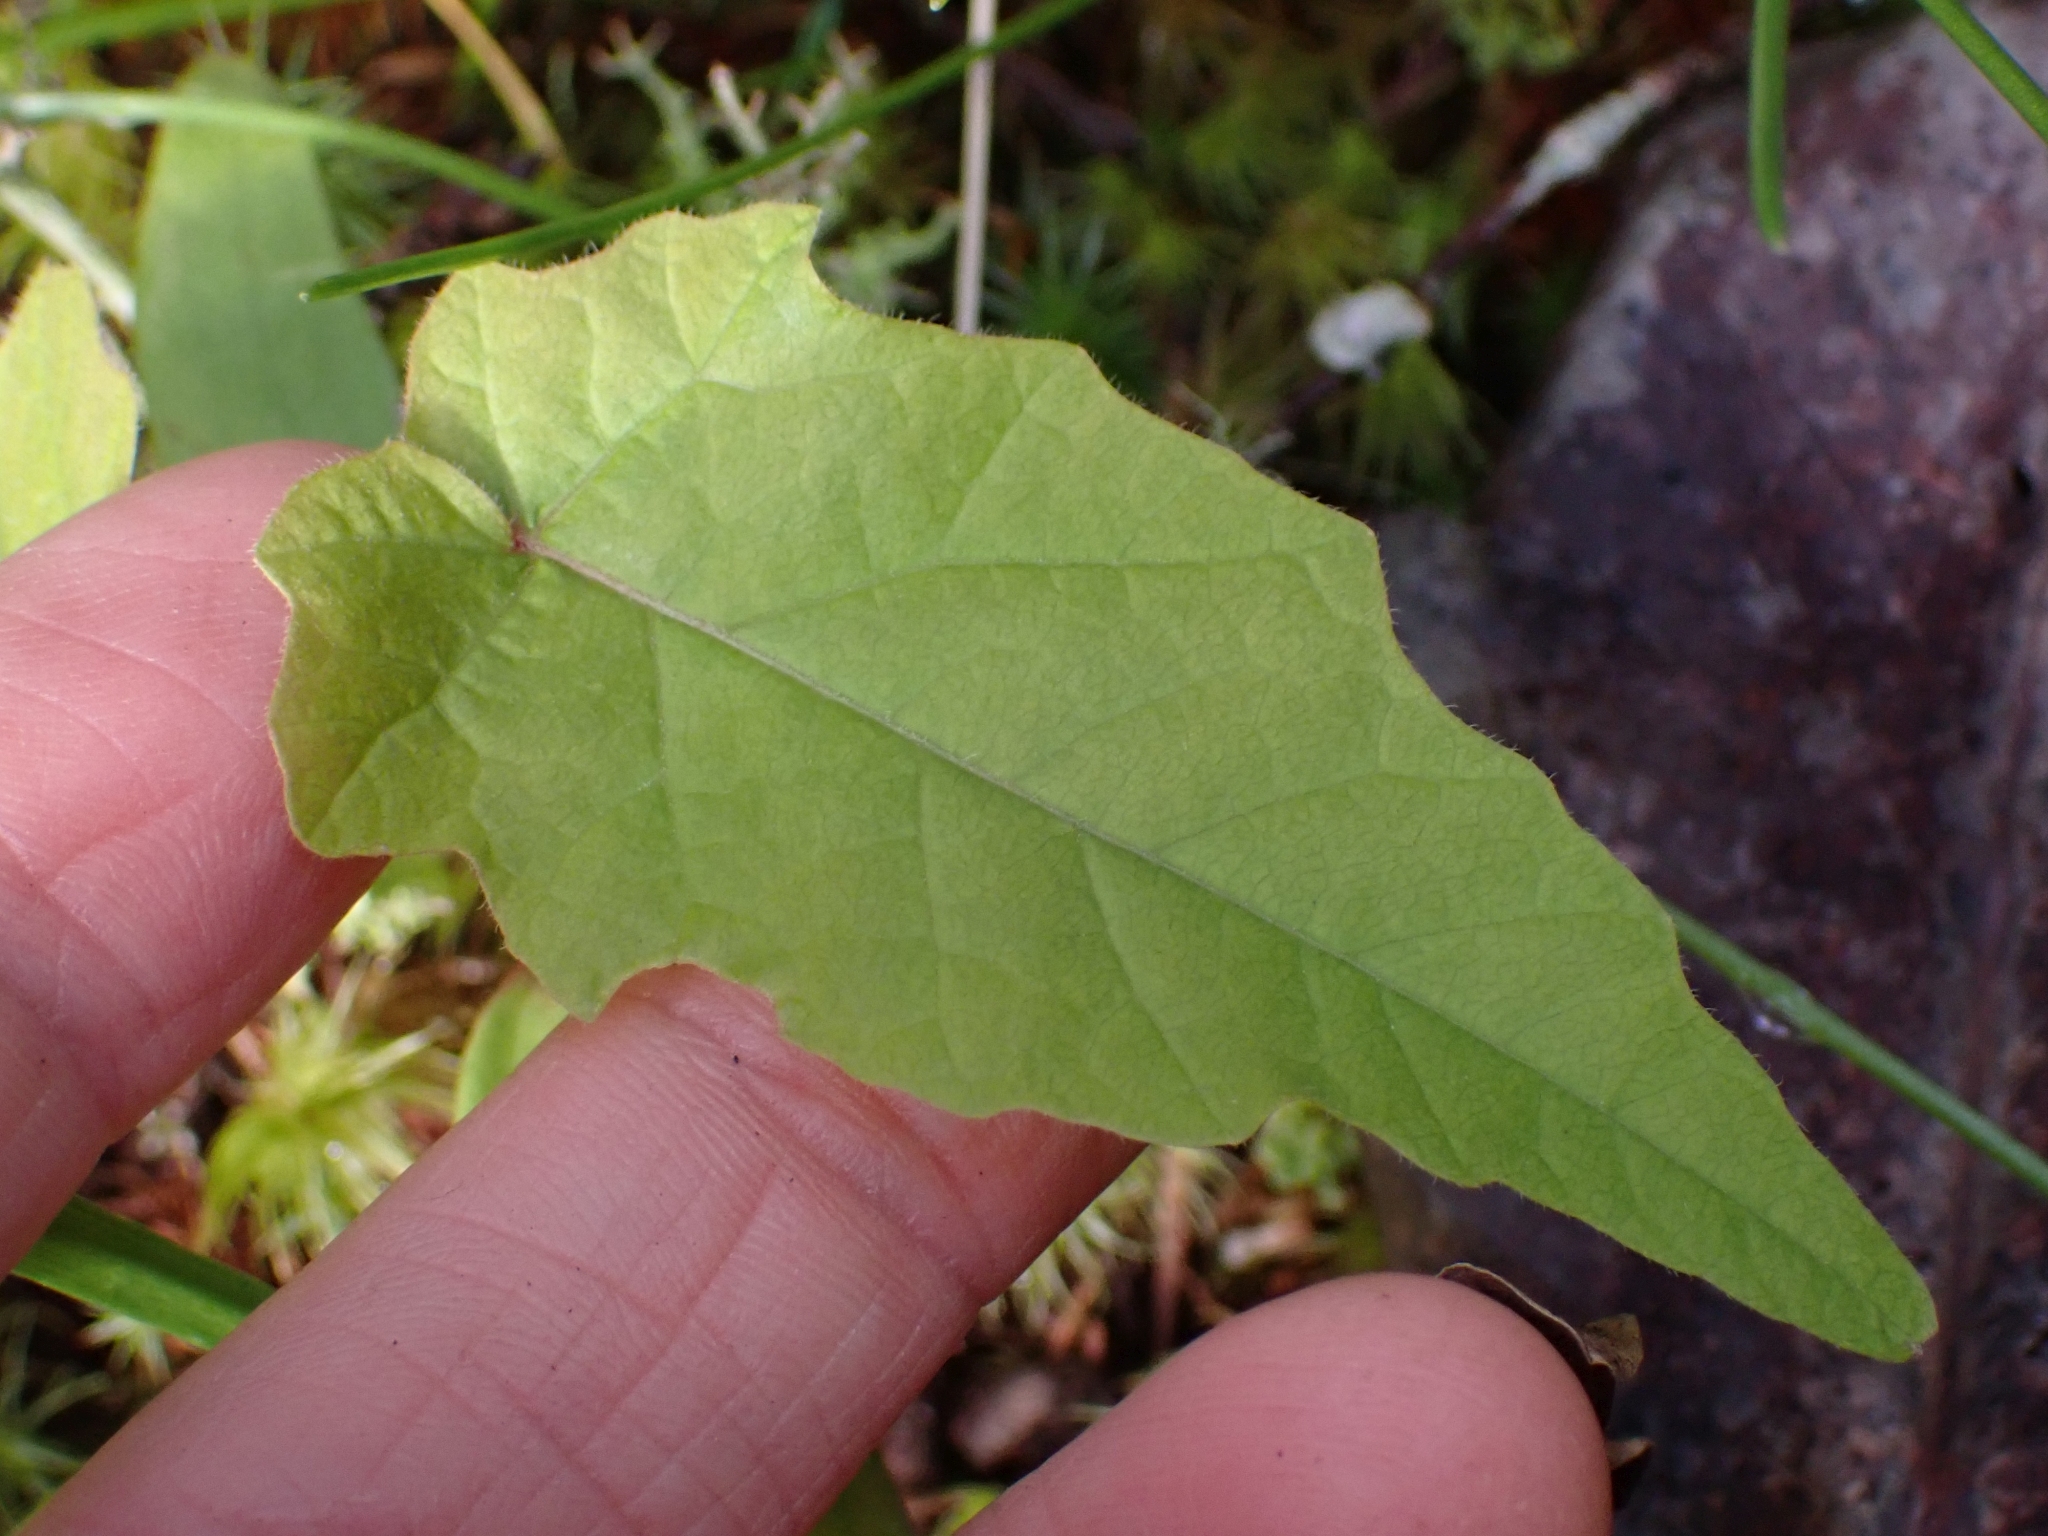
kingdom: Plantae
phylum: Tracheophyta
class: Magnoliopsida
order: Sapindales
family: Sapindaceae
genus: Acer
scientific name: Acer macrophyllum
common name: Oregon maple
